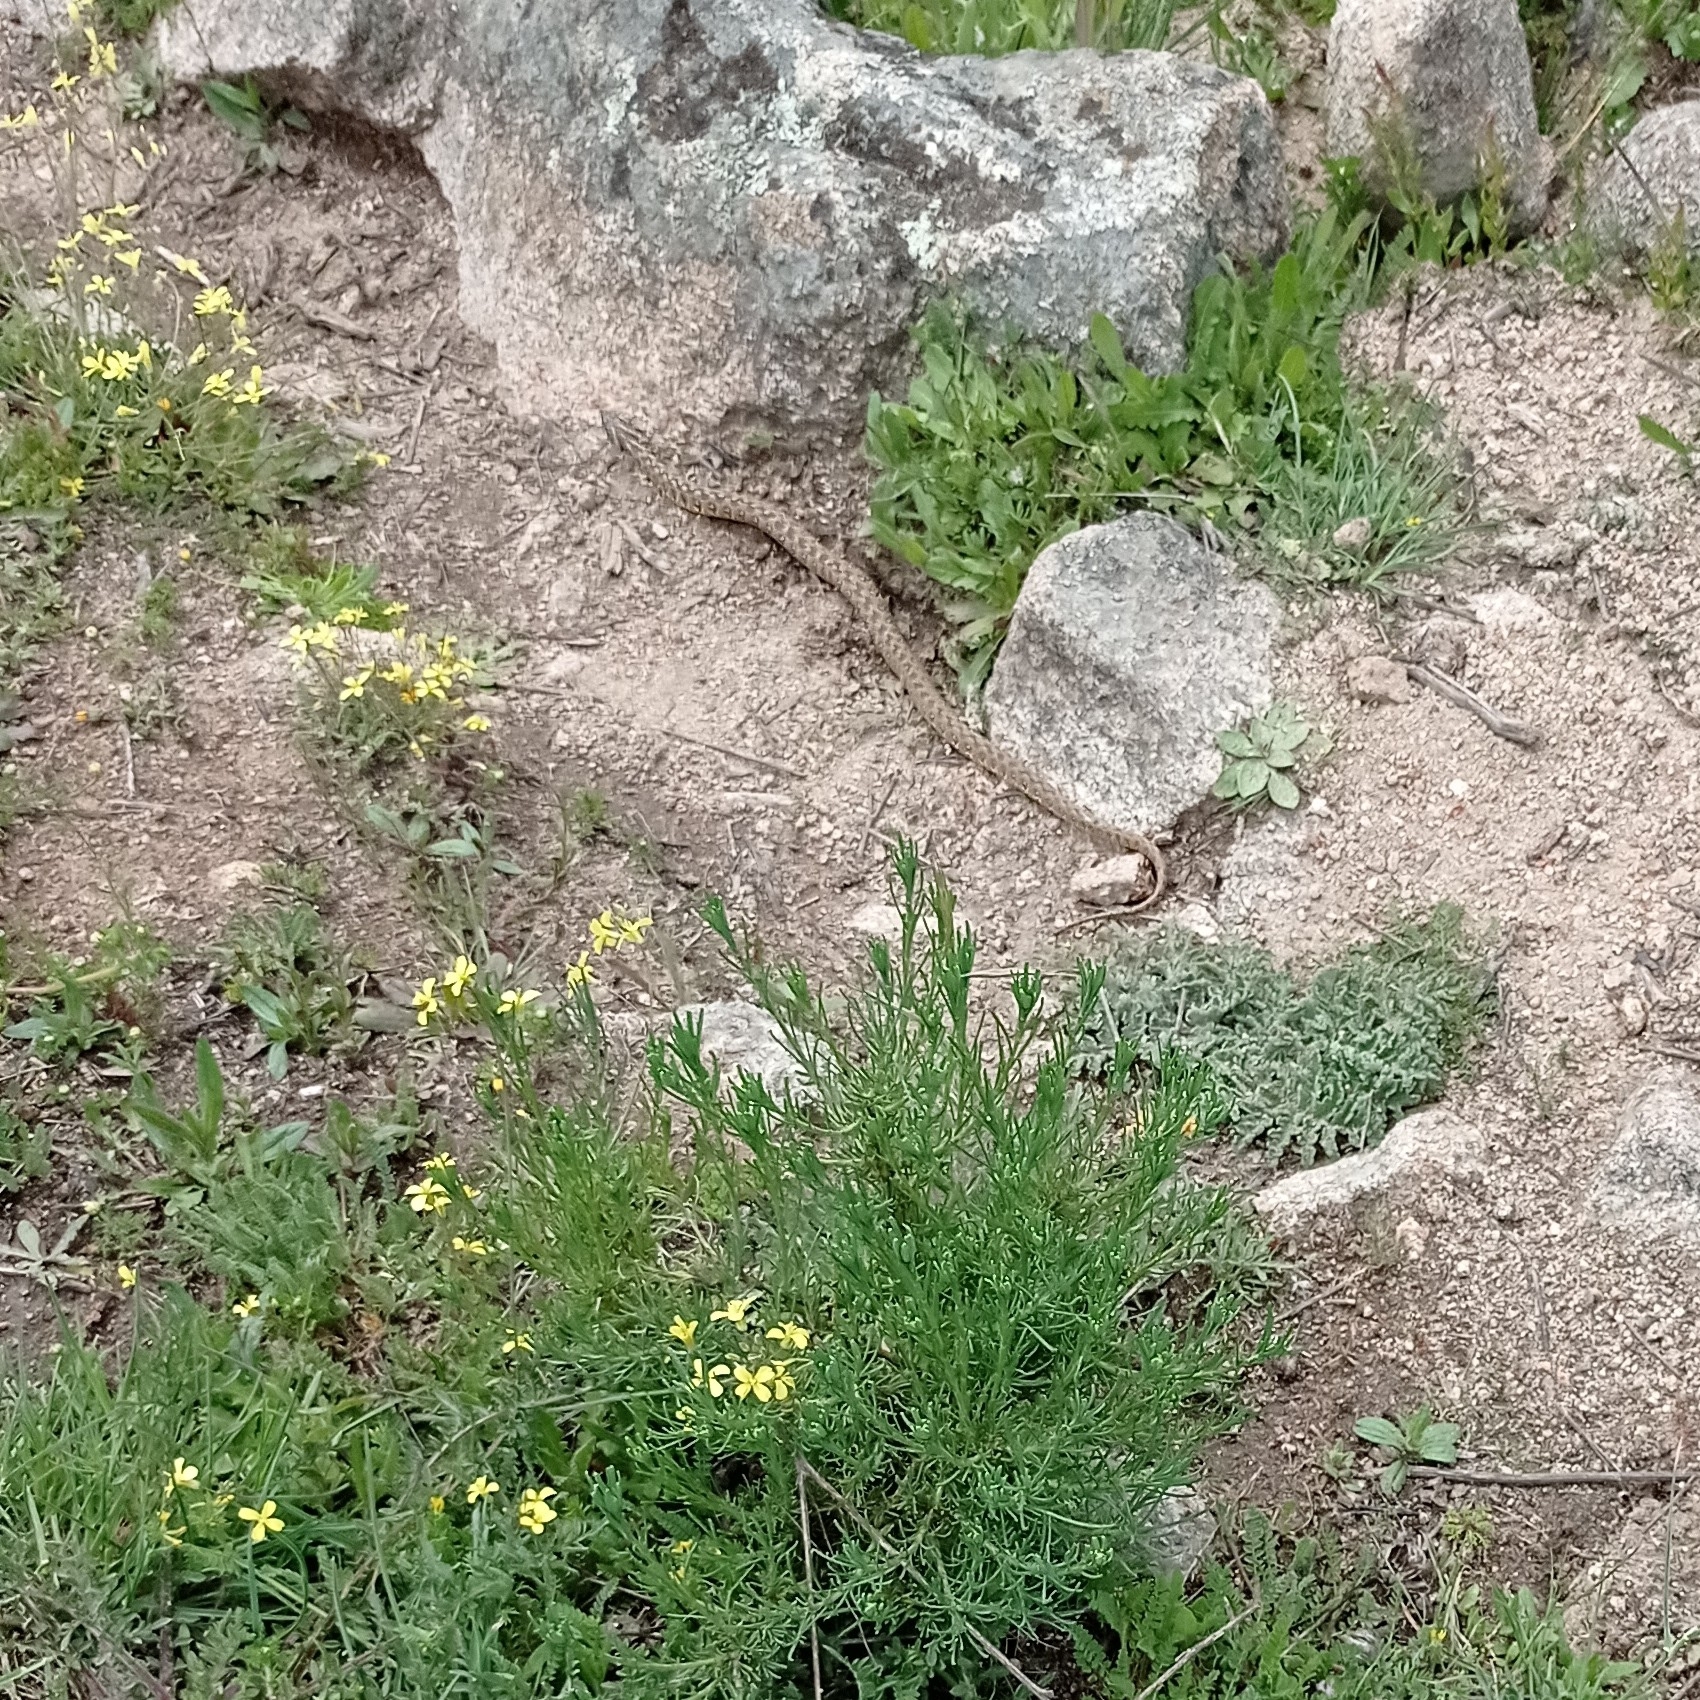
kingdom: Animalia
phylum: Chordata
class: Squamata
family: Colubridae
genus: Natrix
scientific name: Natrix maura
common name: Viperine water snake
